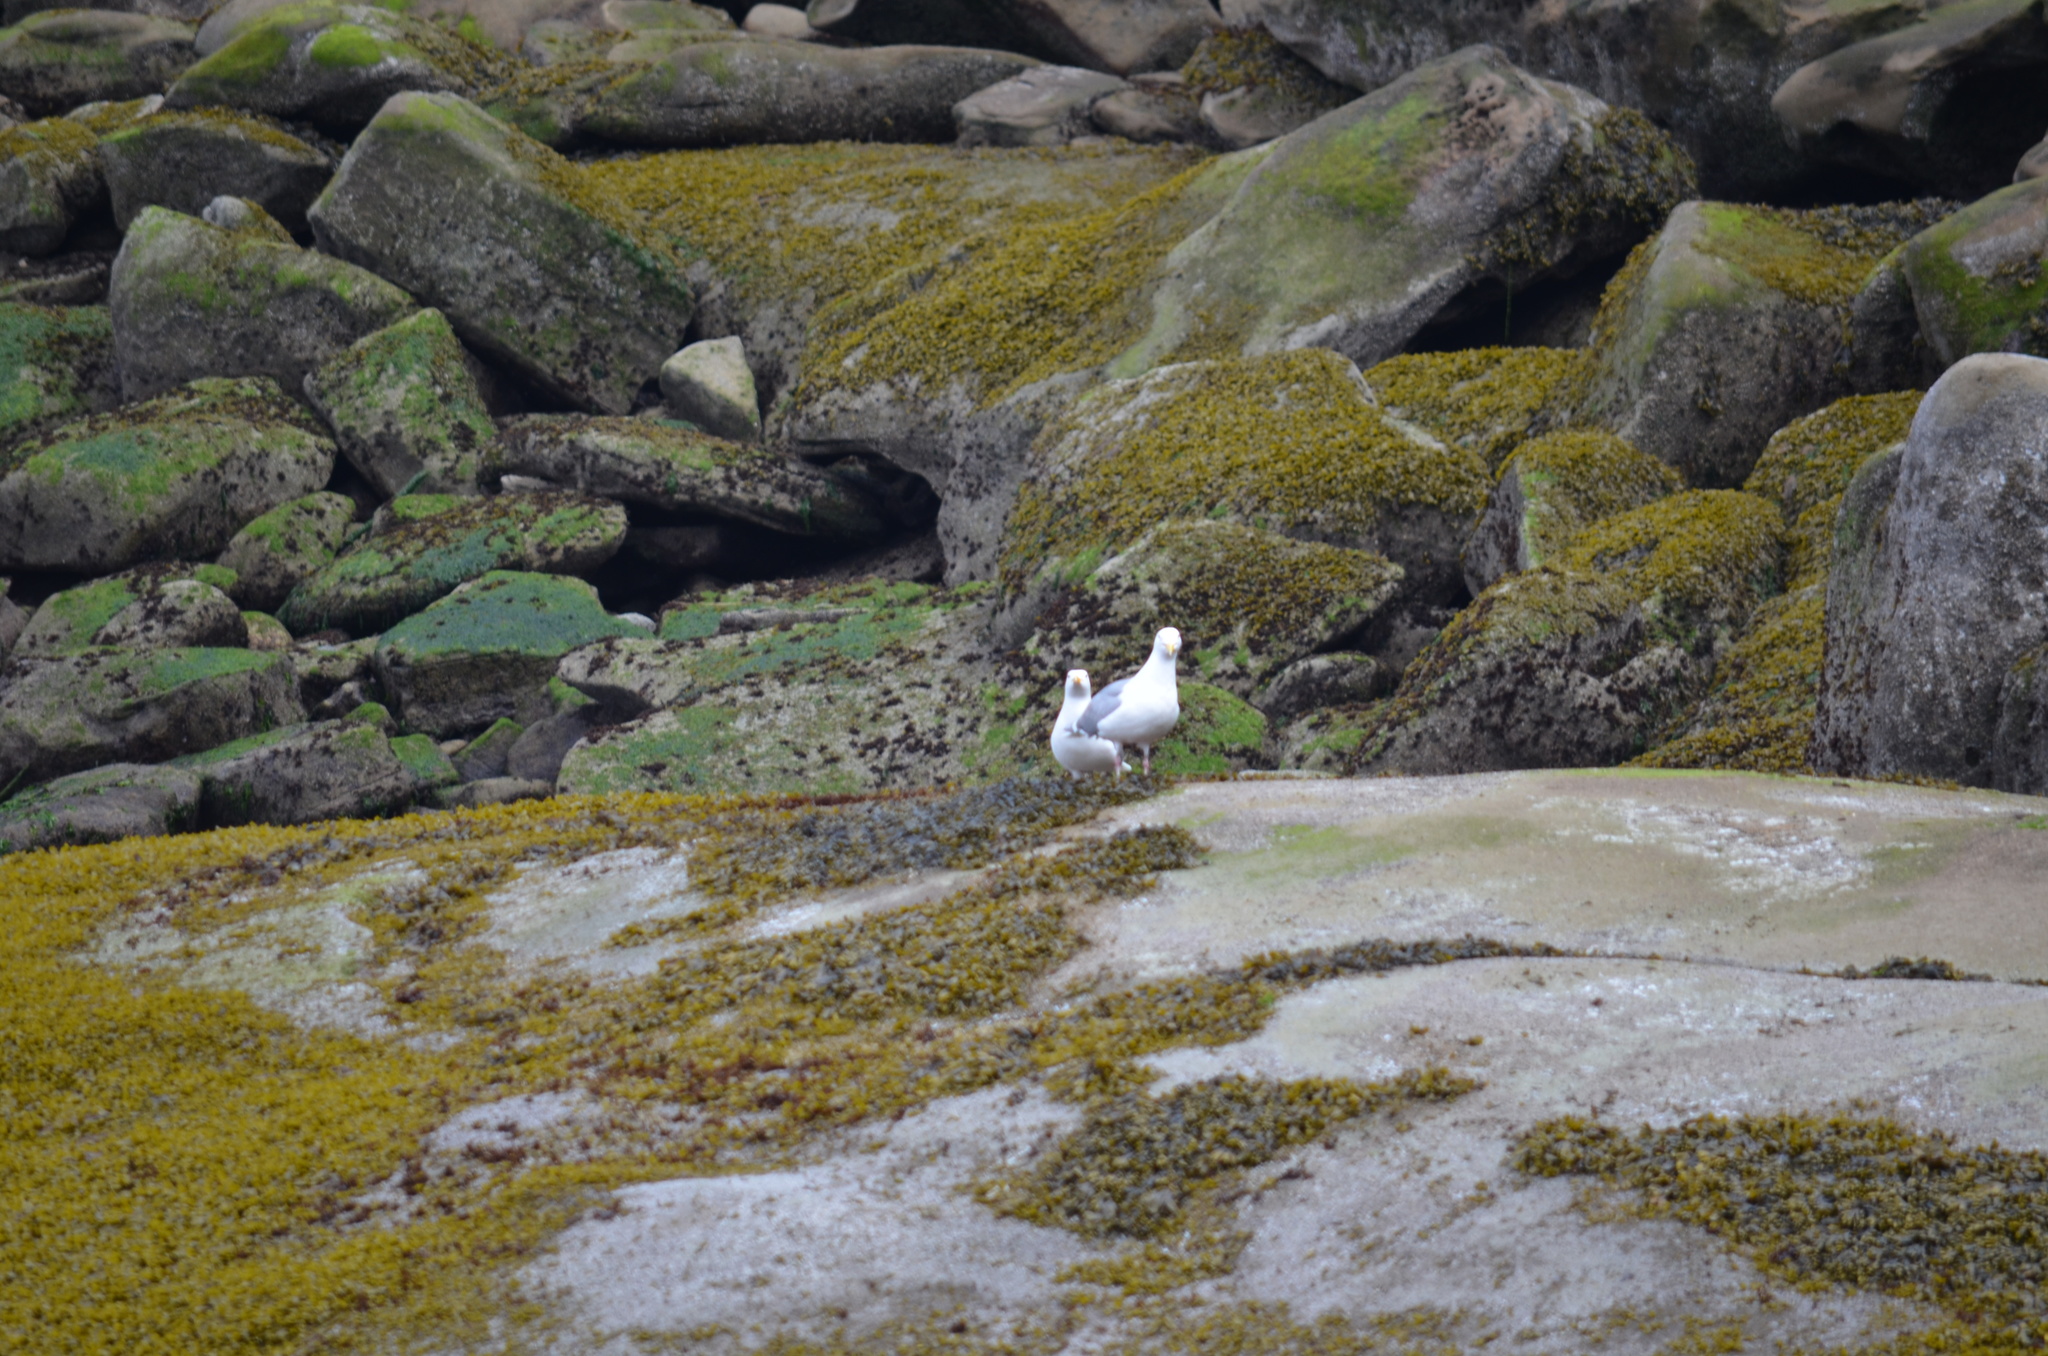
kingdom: Animalia
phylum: Chordata
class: Aves
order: Charadriiformes
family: Laridae
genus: Larus
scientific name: Larus glaucescens
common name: Glaucous-winged gull
